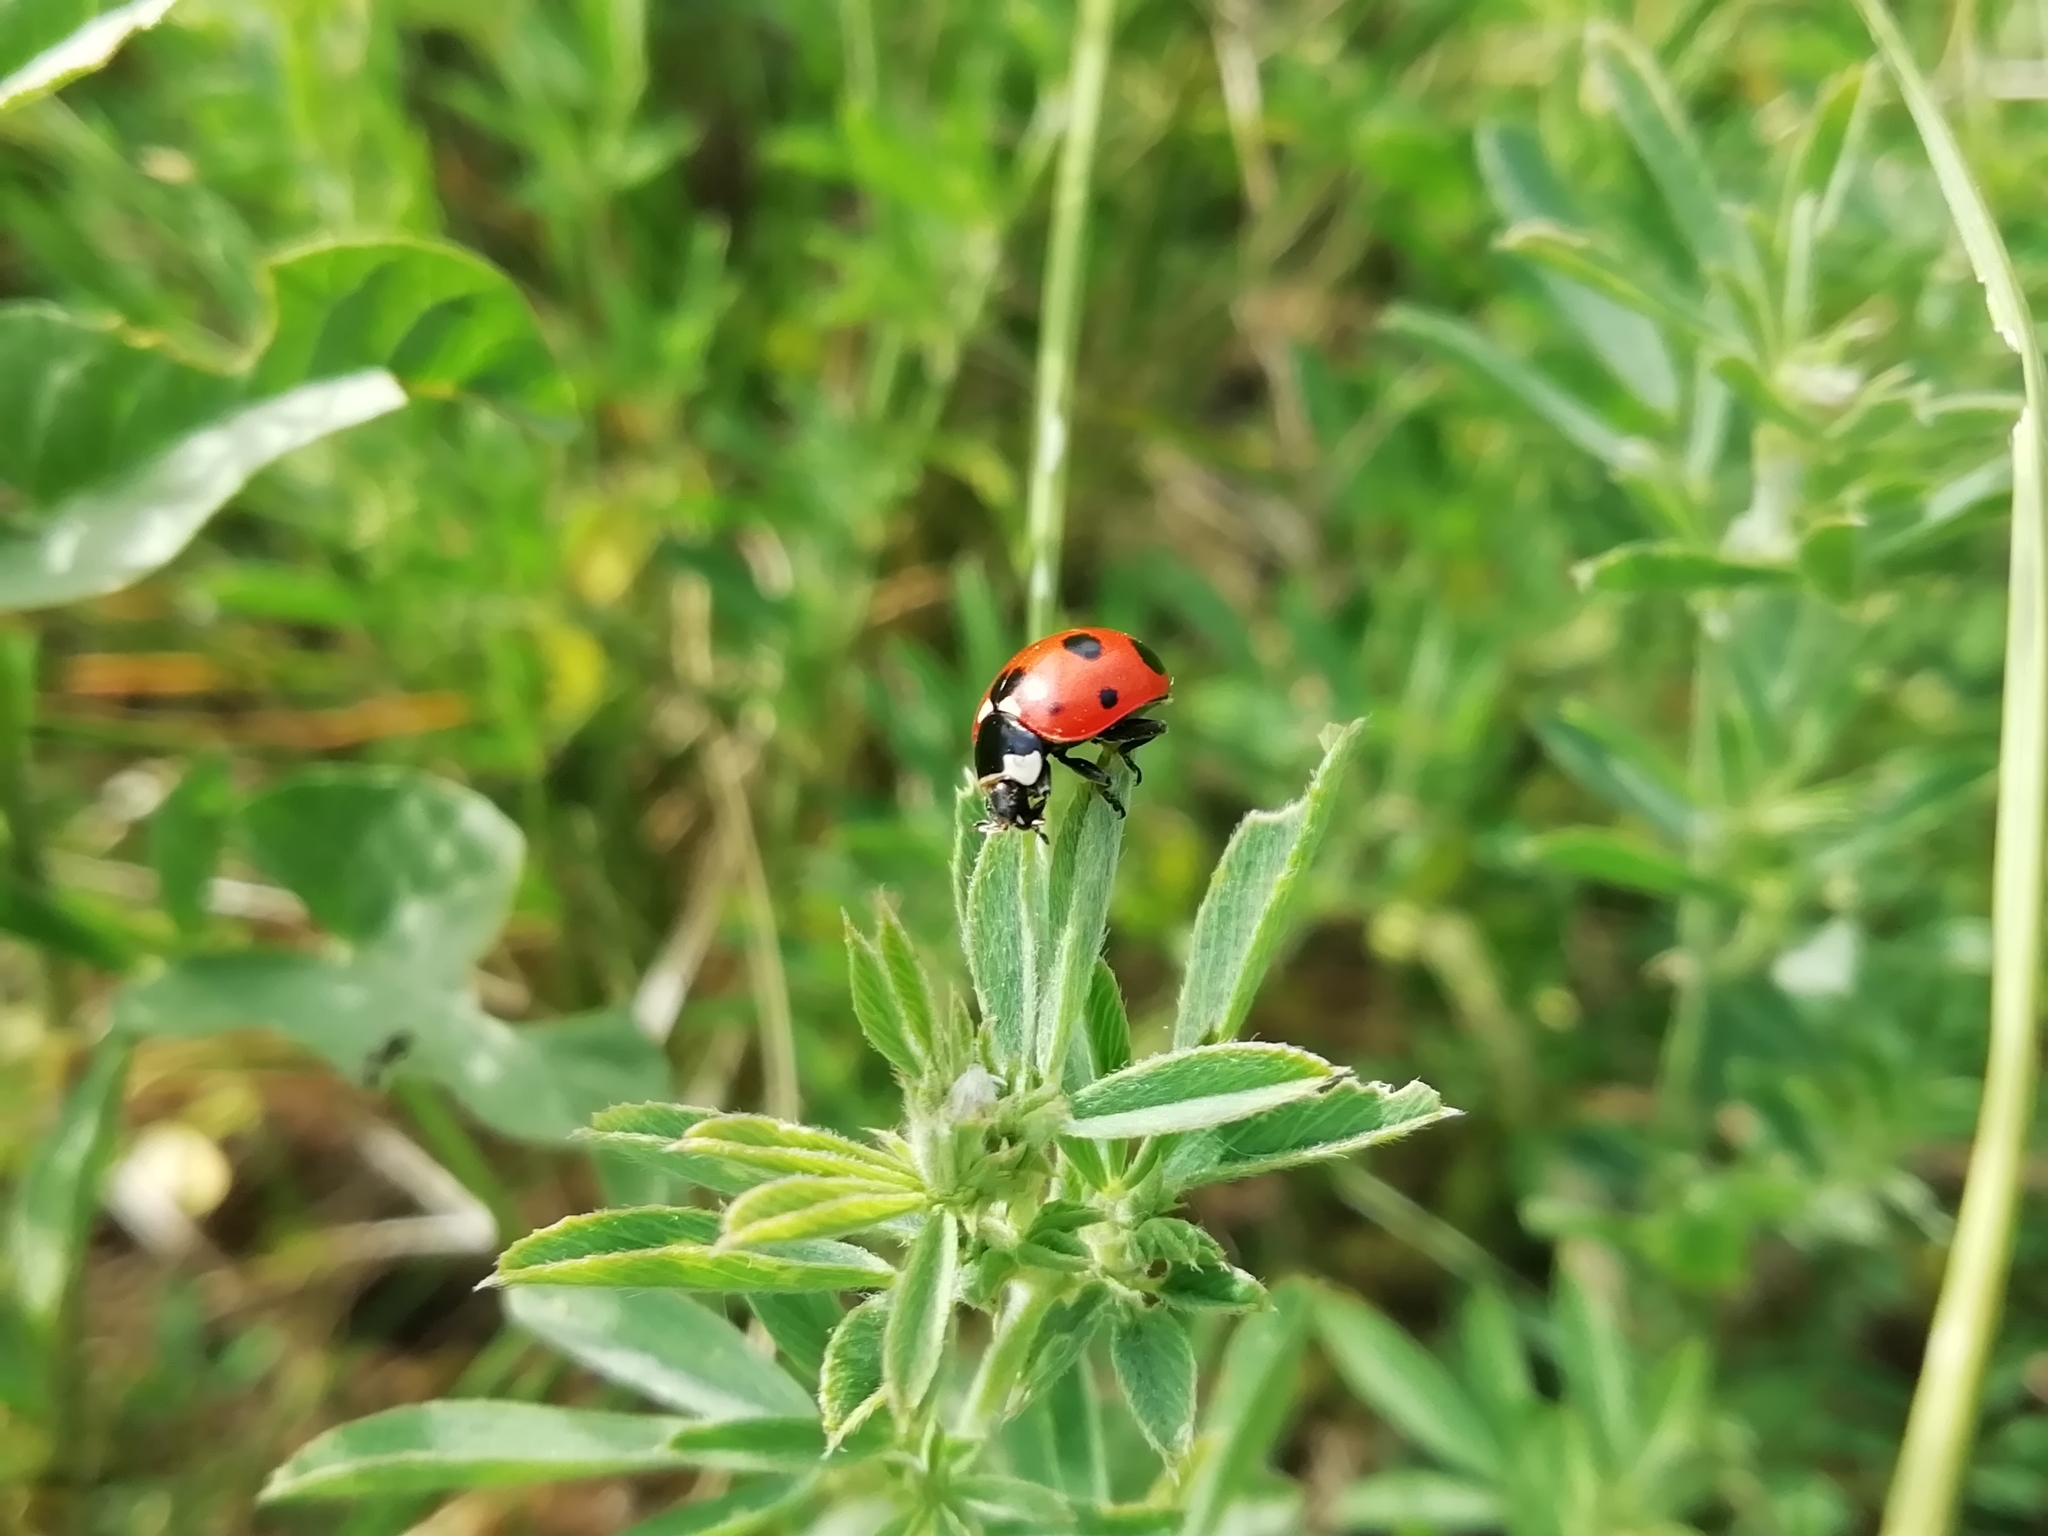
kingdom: Animalia
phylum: Arthropoda
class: Insecta
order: Coleoptera
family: Coccinellidae
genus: Coccinella
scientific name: Coccinella septempunctata
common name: Sevenspotted lady beetle
